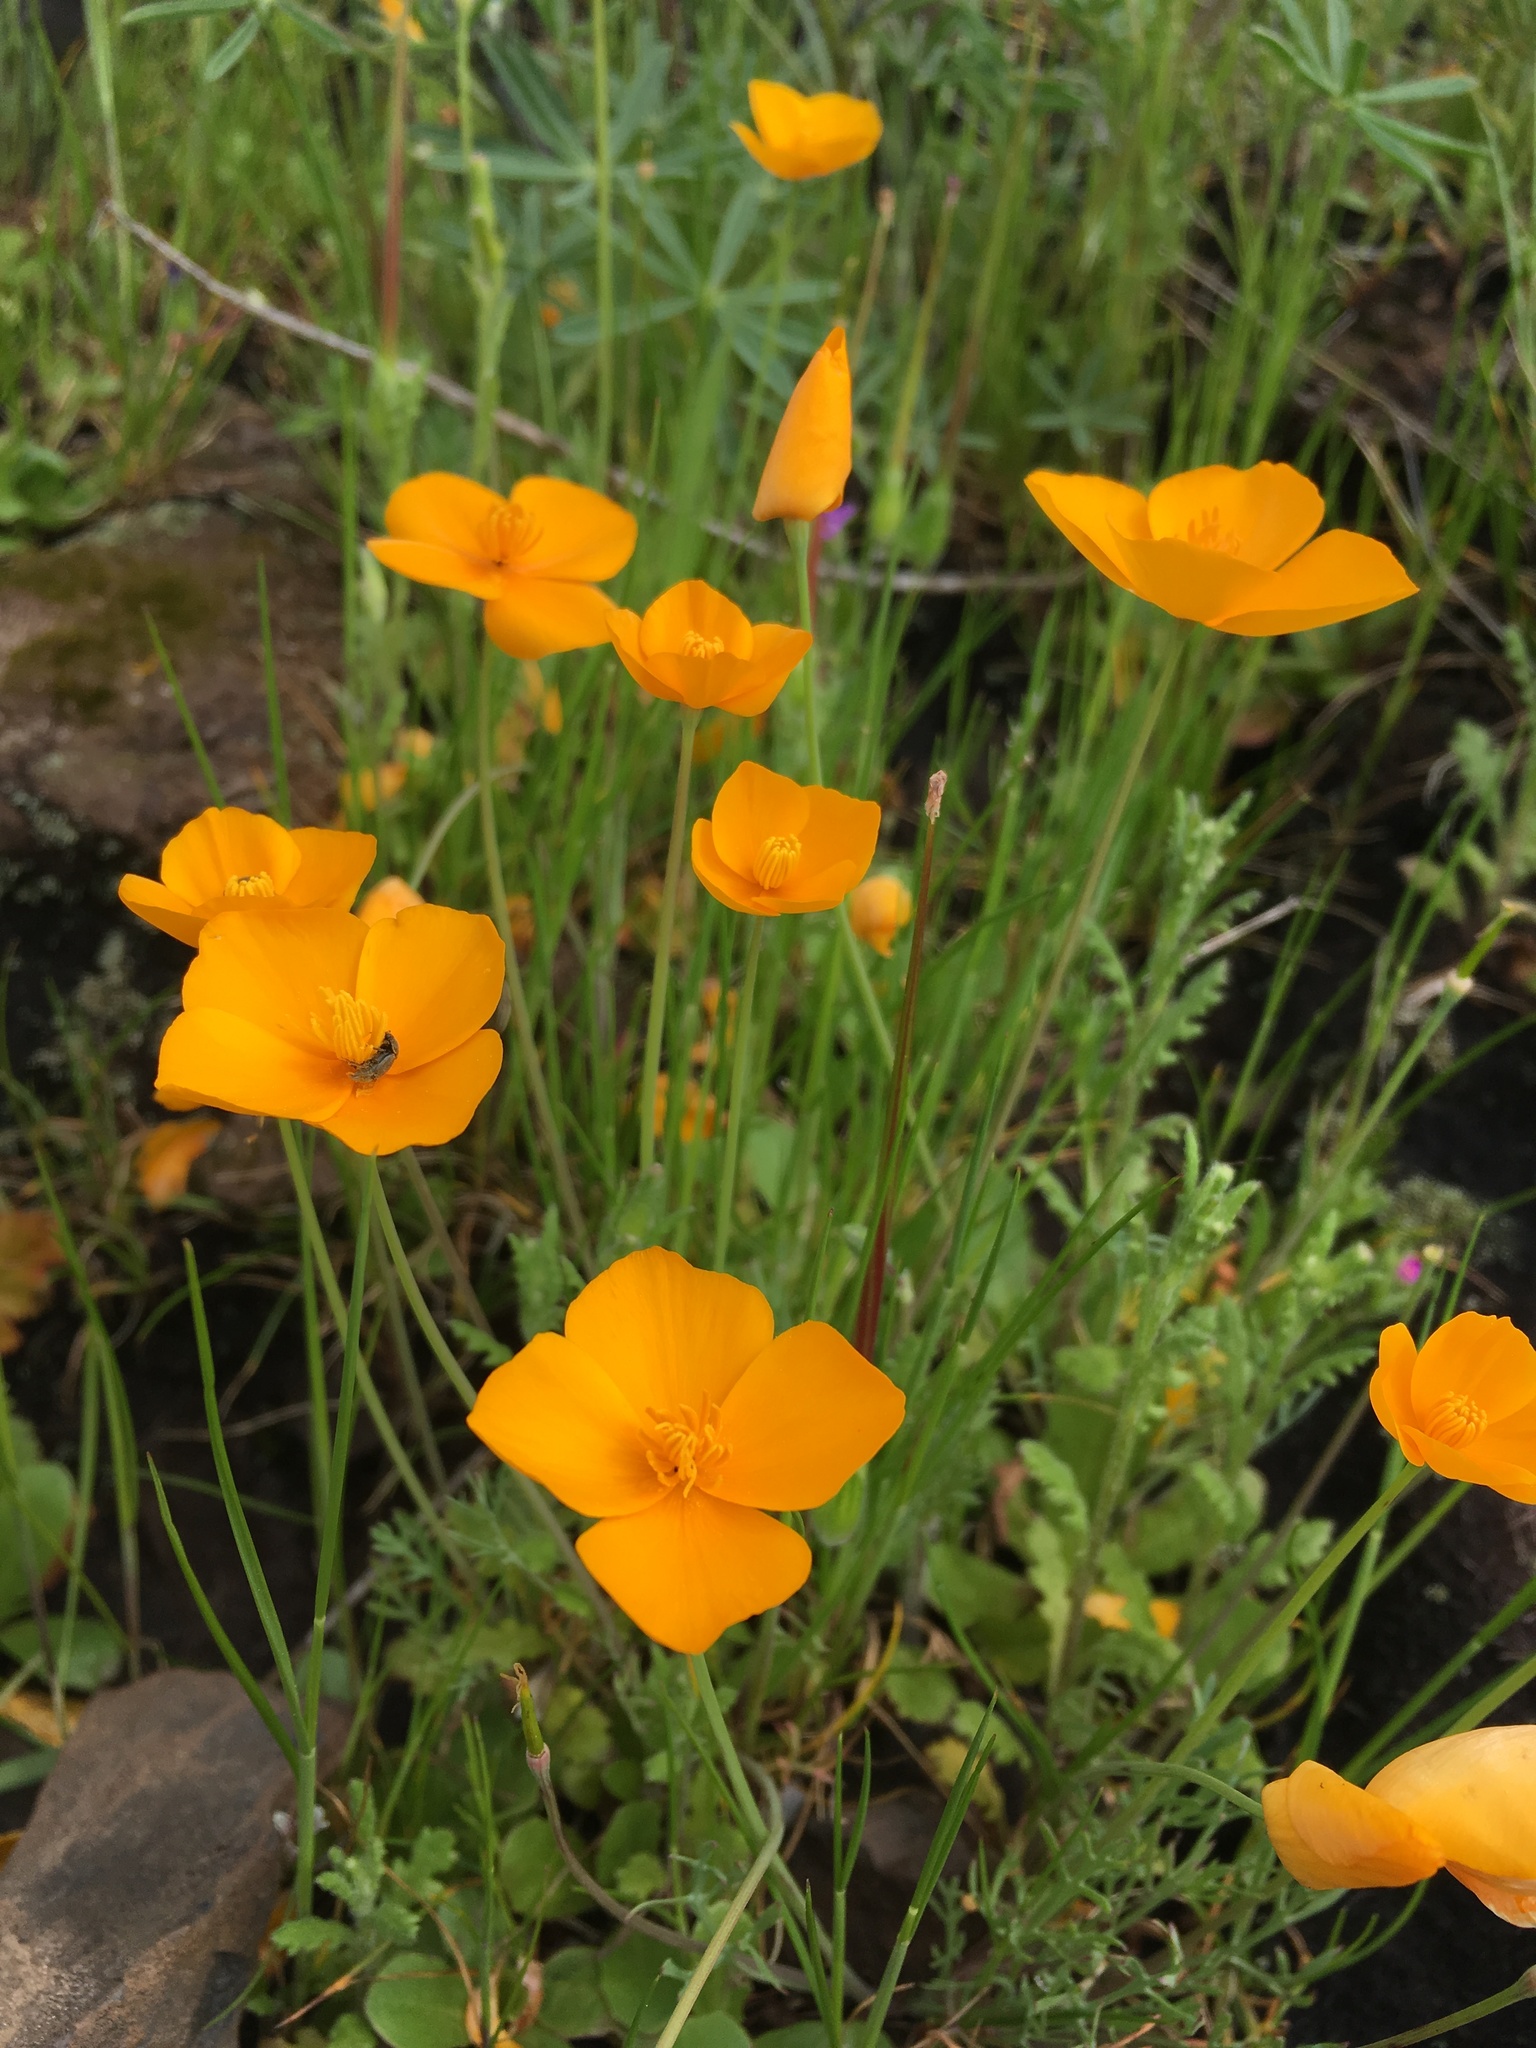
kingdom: Plantae
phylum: Tracheophyta
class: Magnoliopsida
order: Ranunculales
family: Papaveraceae
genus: Eschscholzia
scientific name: Eschscholzia lobbii
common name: Frying-pans
